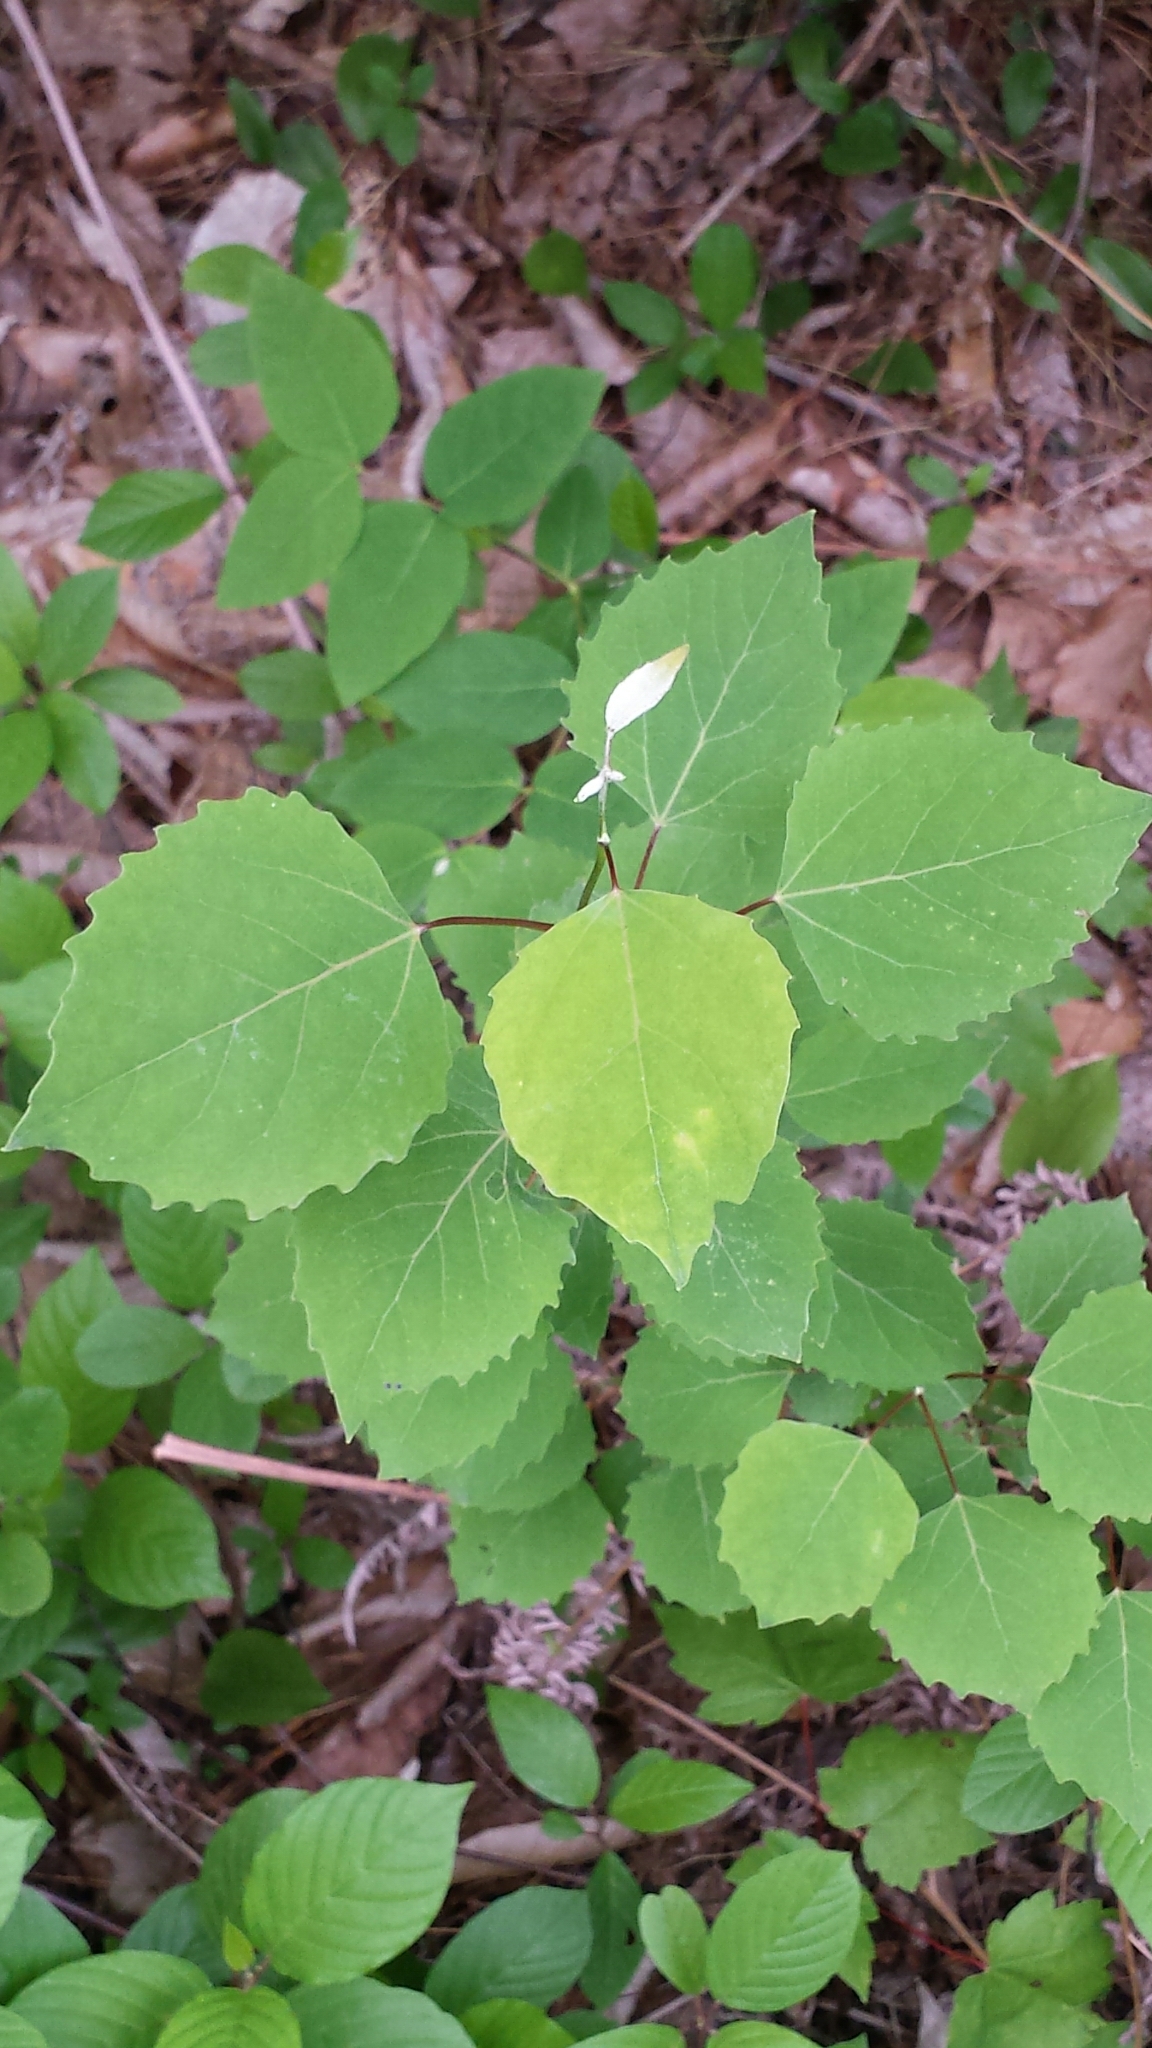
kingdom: Plantae
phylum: Tracheophyta
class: Magnoliopsida
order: Malpighiales
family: Salicaceae
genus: Populus
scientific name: Populus grandidentata
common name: Bigtooth aspen
